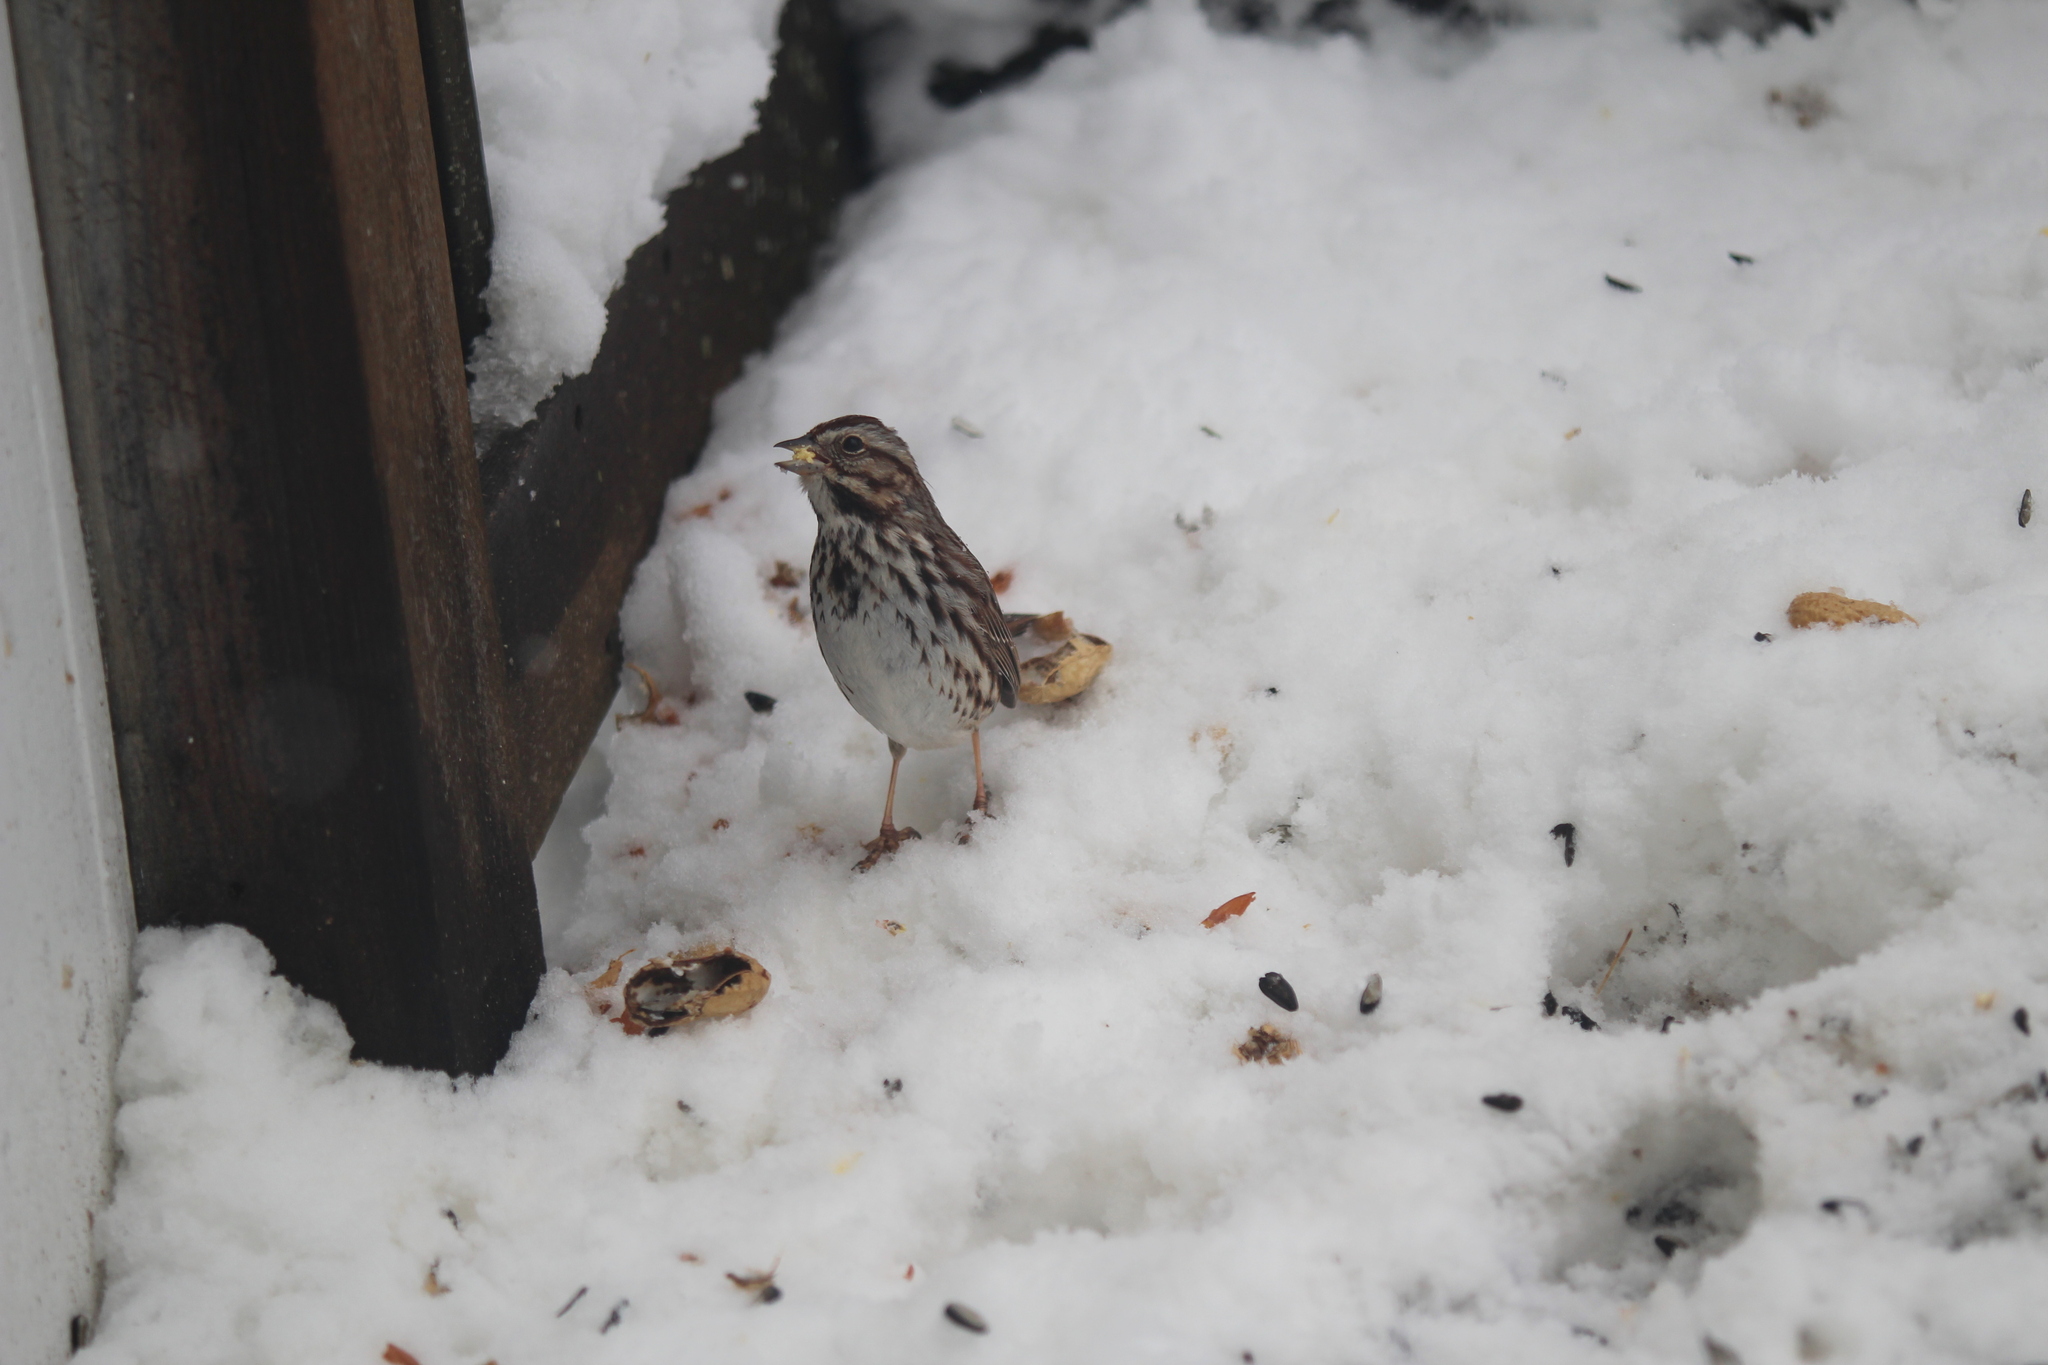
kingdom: Animalia
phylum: Chordata
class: Aves
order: Passeriformes
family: Passerellidae
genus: Melospiza
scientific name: Melospiza melodia
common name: Song sparrow
